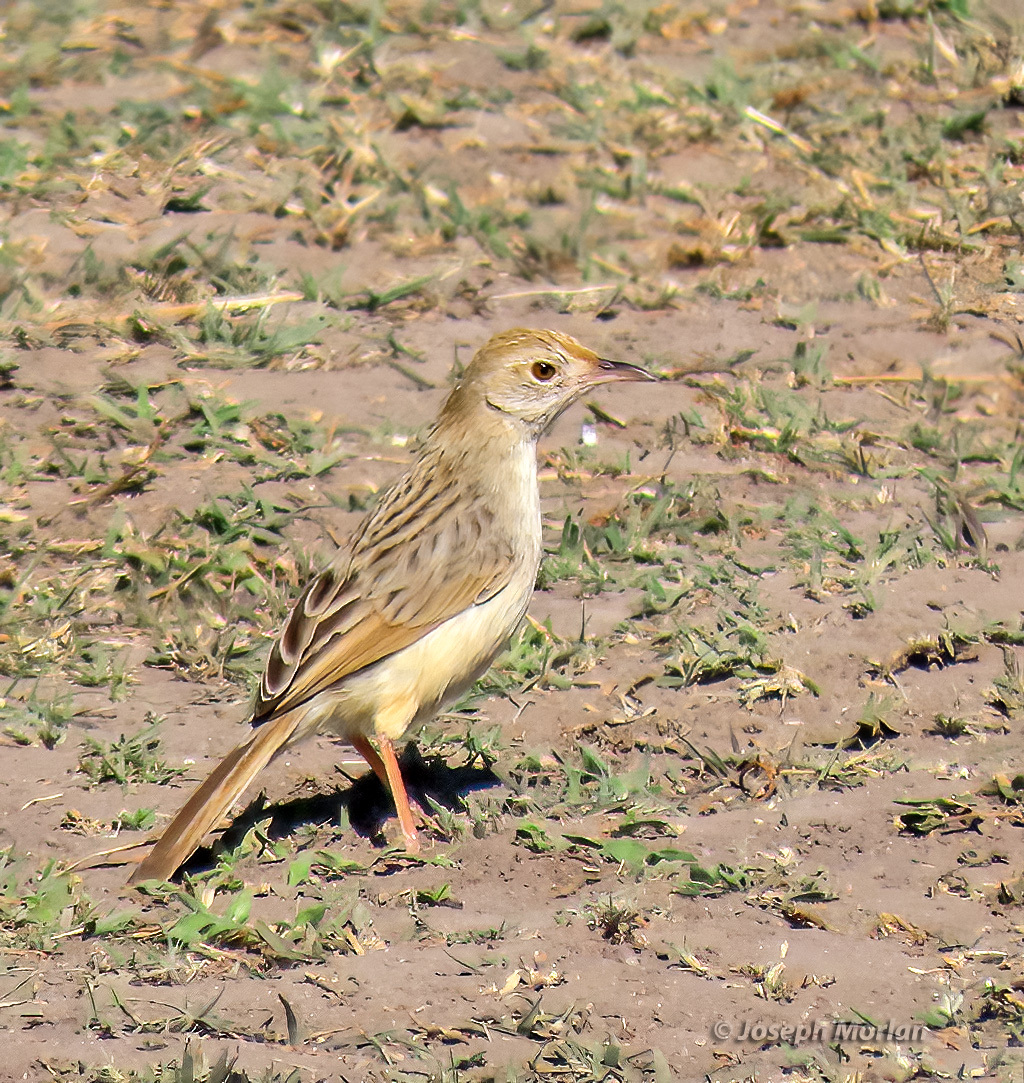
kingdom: Animalia
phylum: Chordata
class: Aves
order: Passeriformes
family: Cisticolidae
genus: Cisticola
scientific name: Cisticola chiniana
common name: Rattling cisticola
